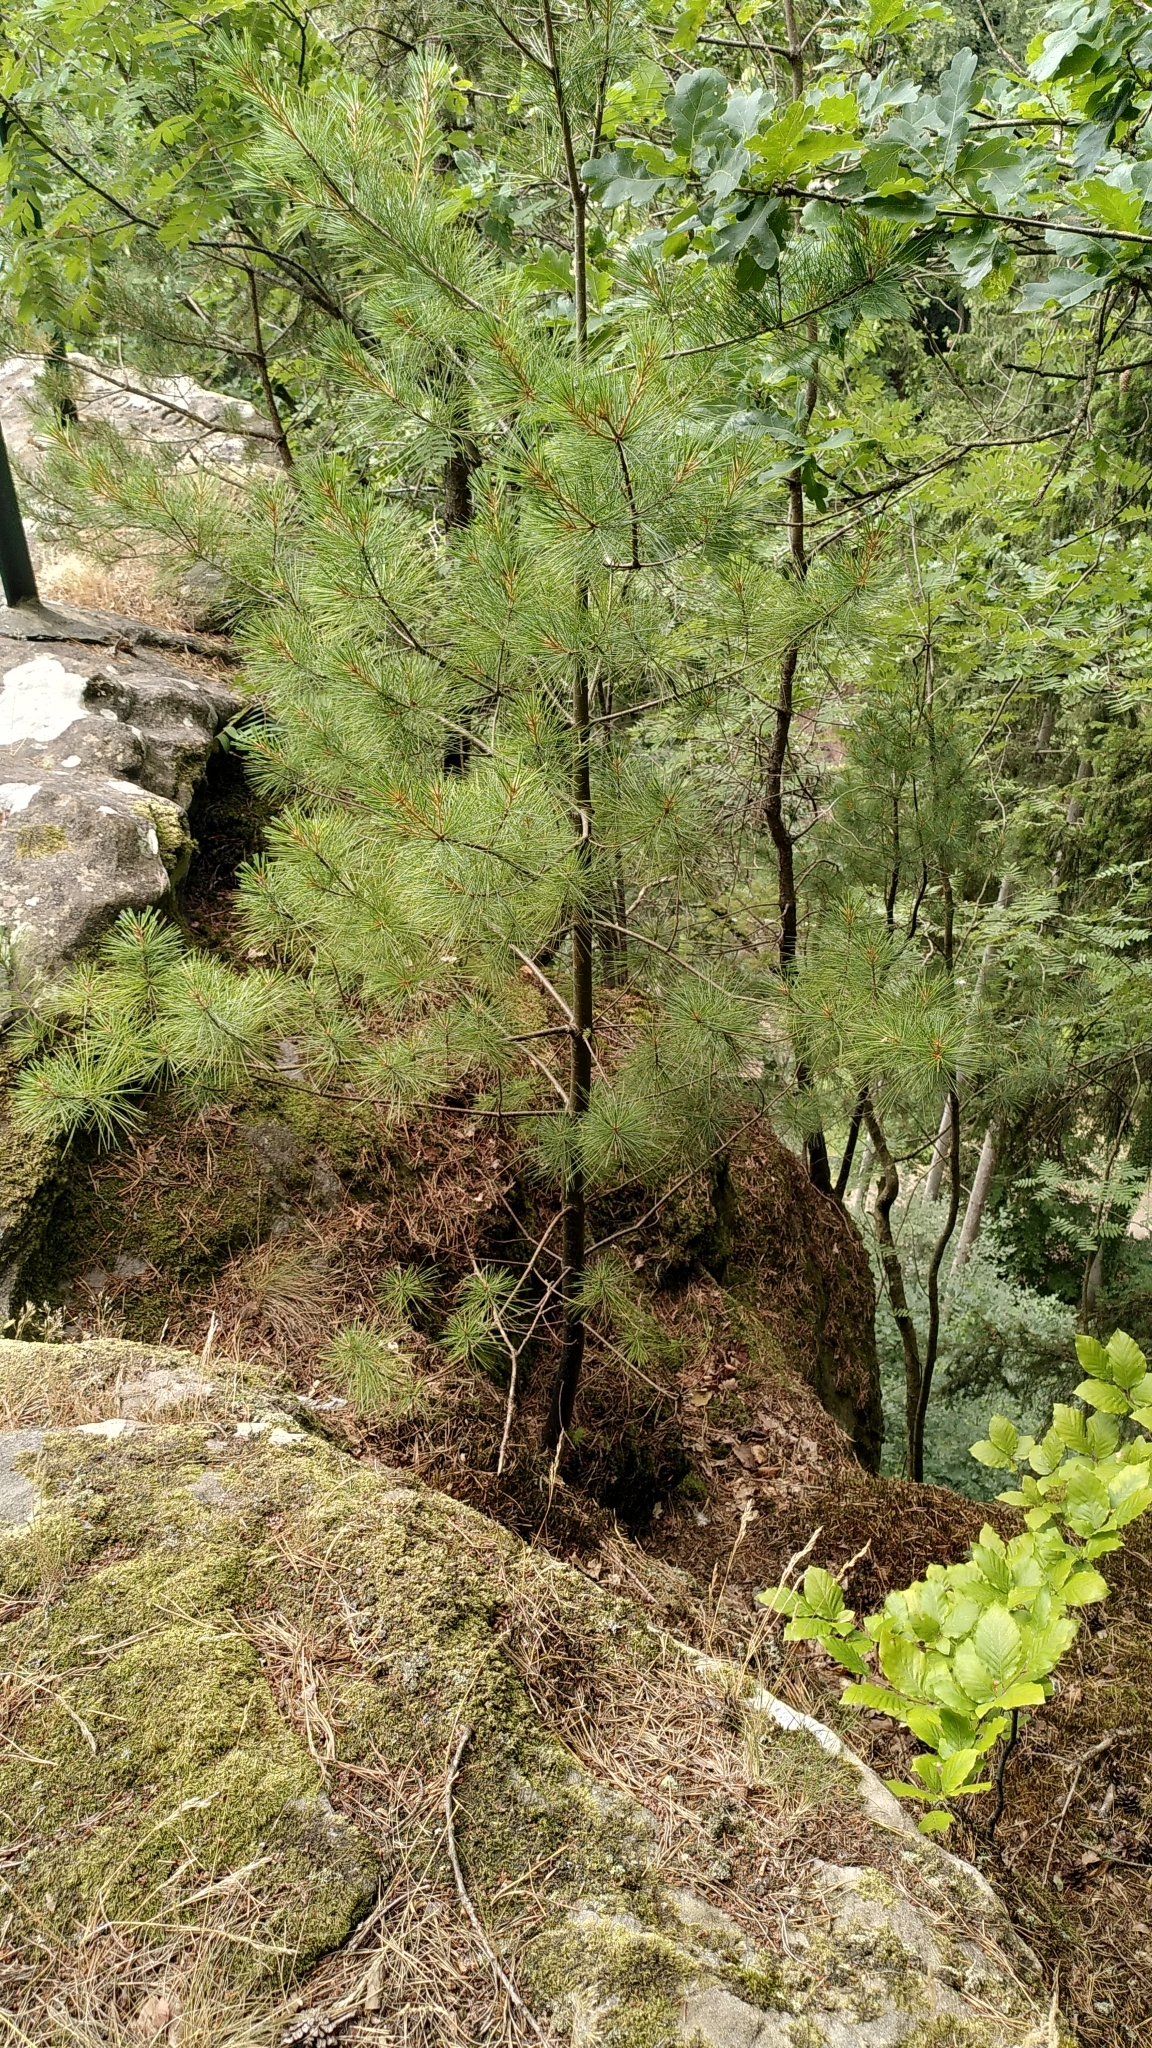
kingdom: Plantae
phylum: Tracheophyta
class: Pinopsida
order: Pinales
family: Pinaceae
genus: Pinus
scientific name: Pinus strobus
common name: Weymouth pine
